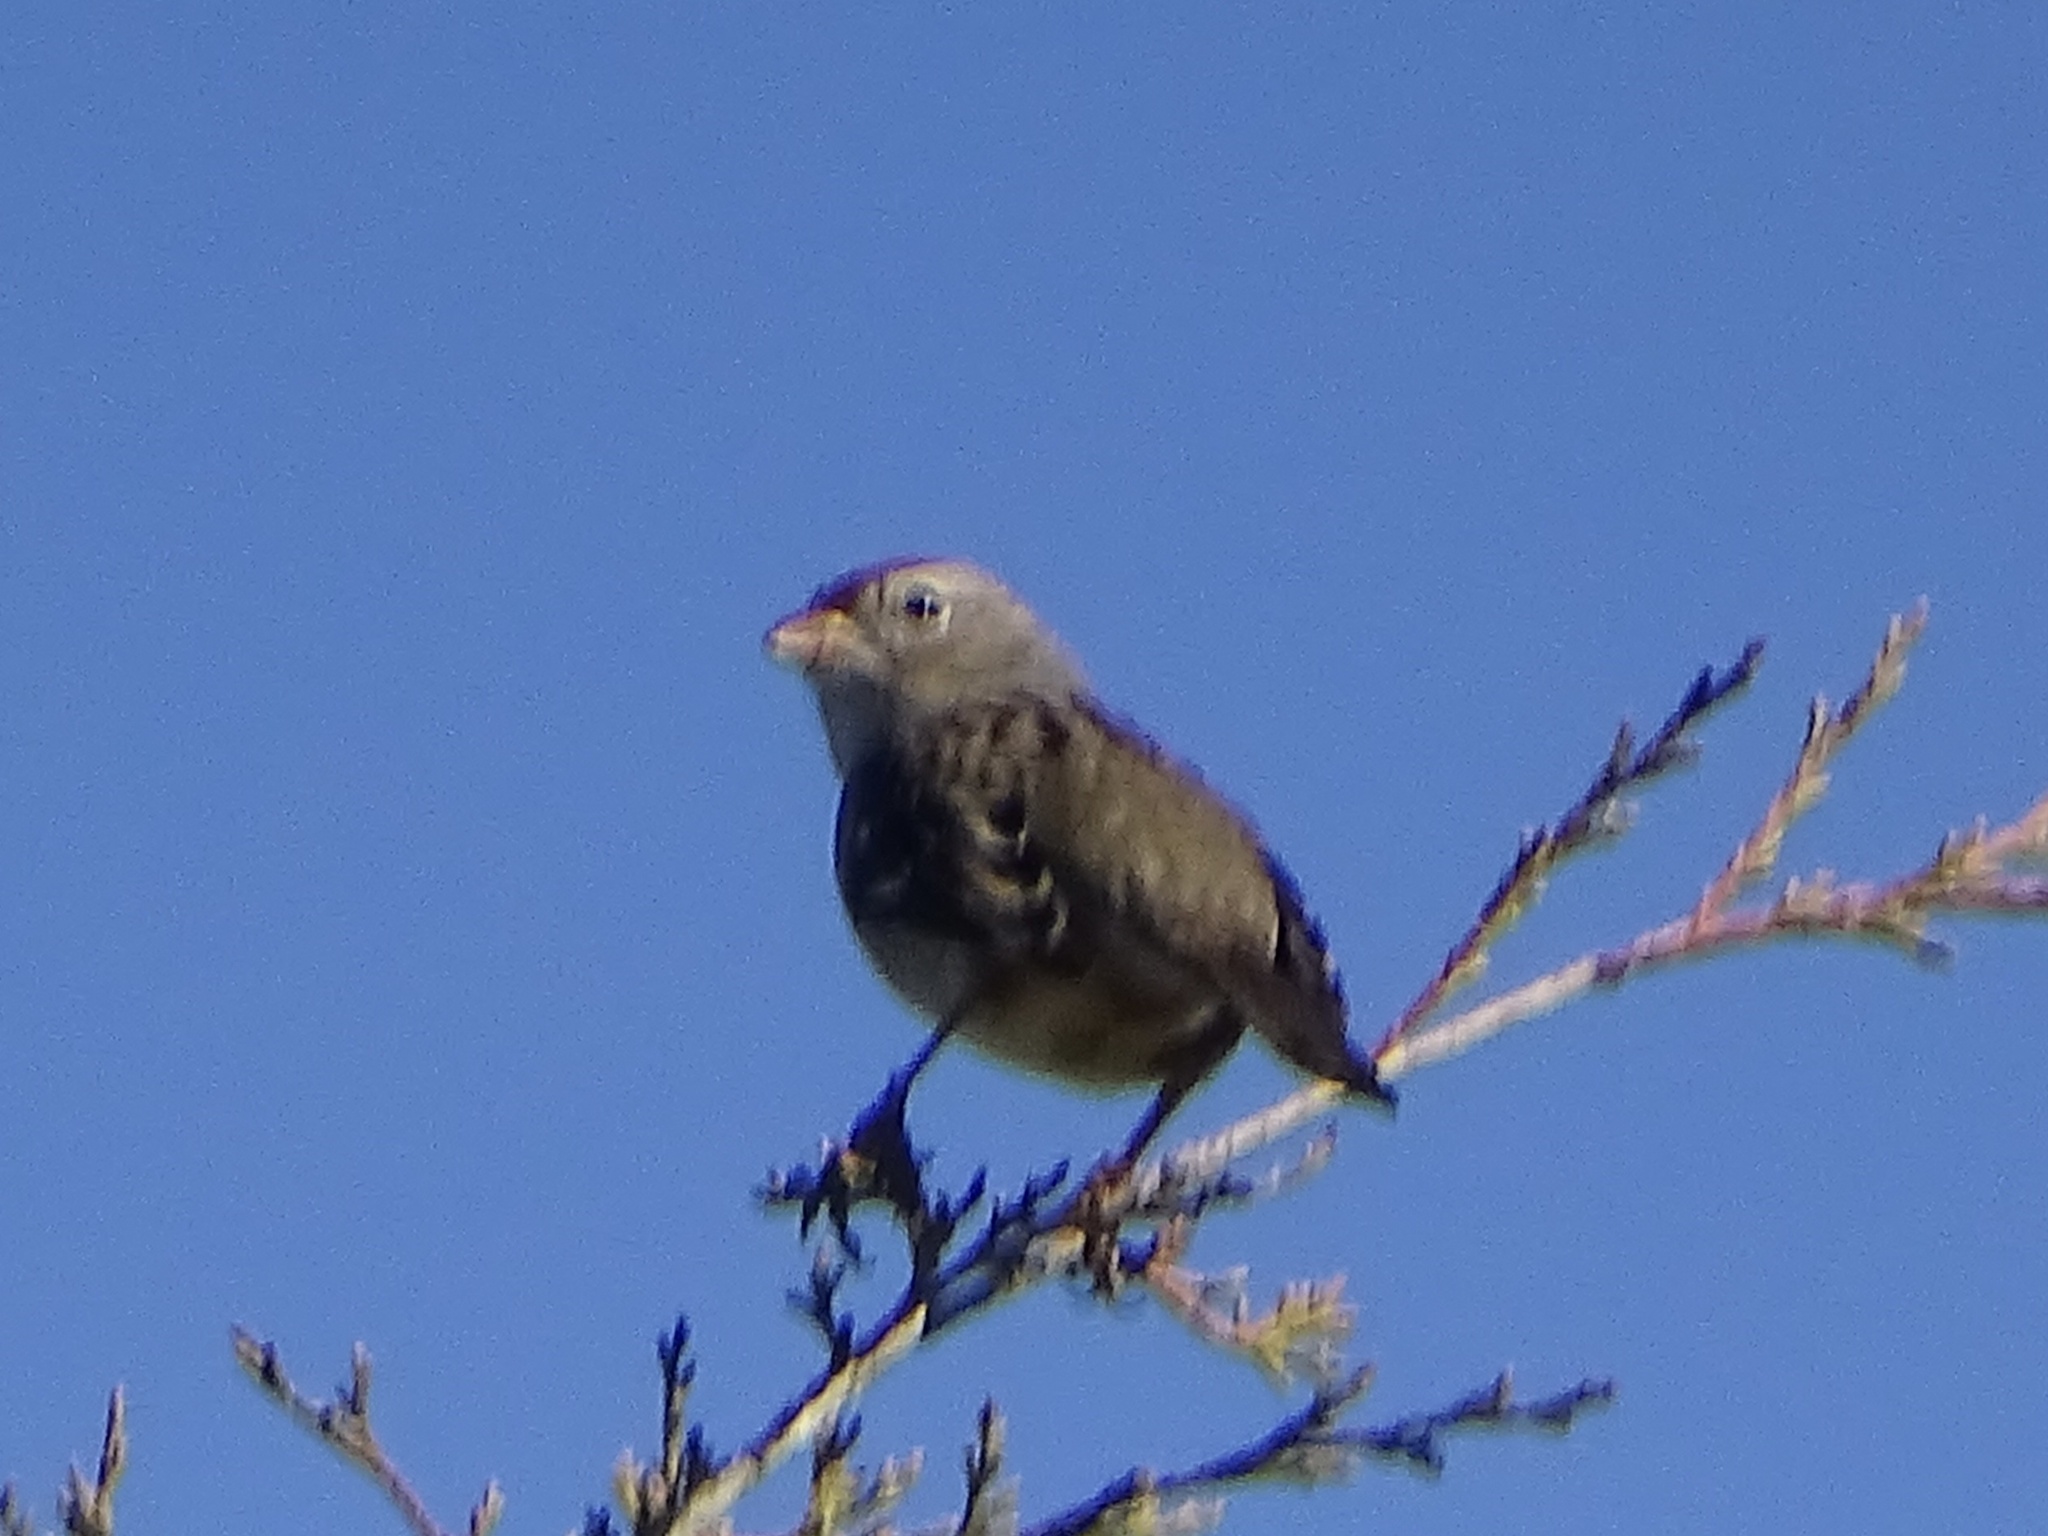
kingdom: Animalia
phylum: Chordata
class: Aves
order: Passeriformes
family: Passerellidae
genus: Zonotrichia
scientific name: Zonotrichia leucophrys
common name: White-crowned sparrow
